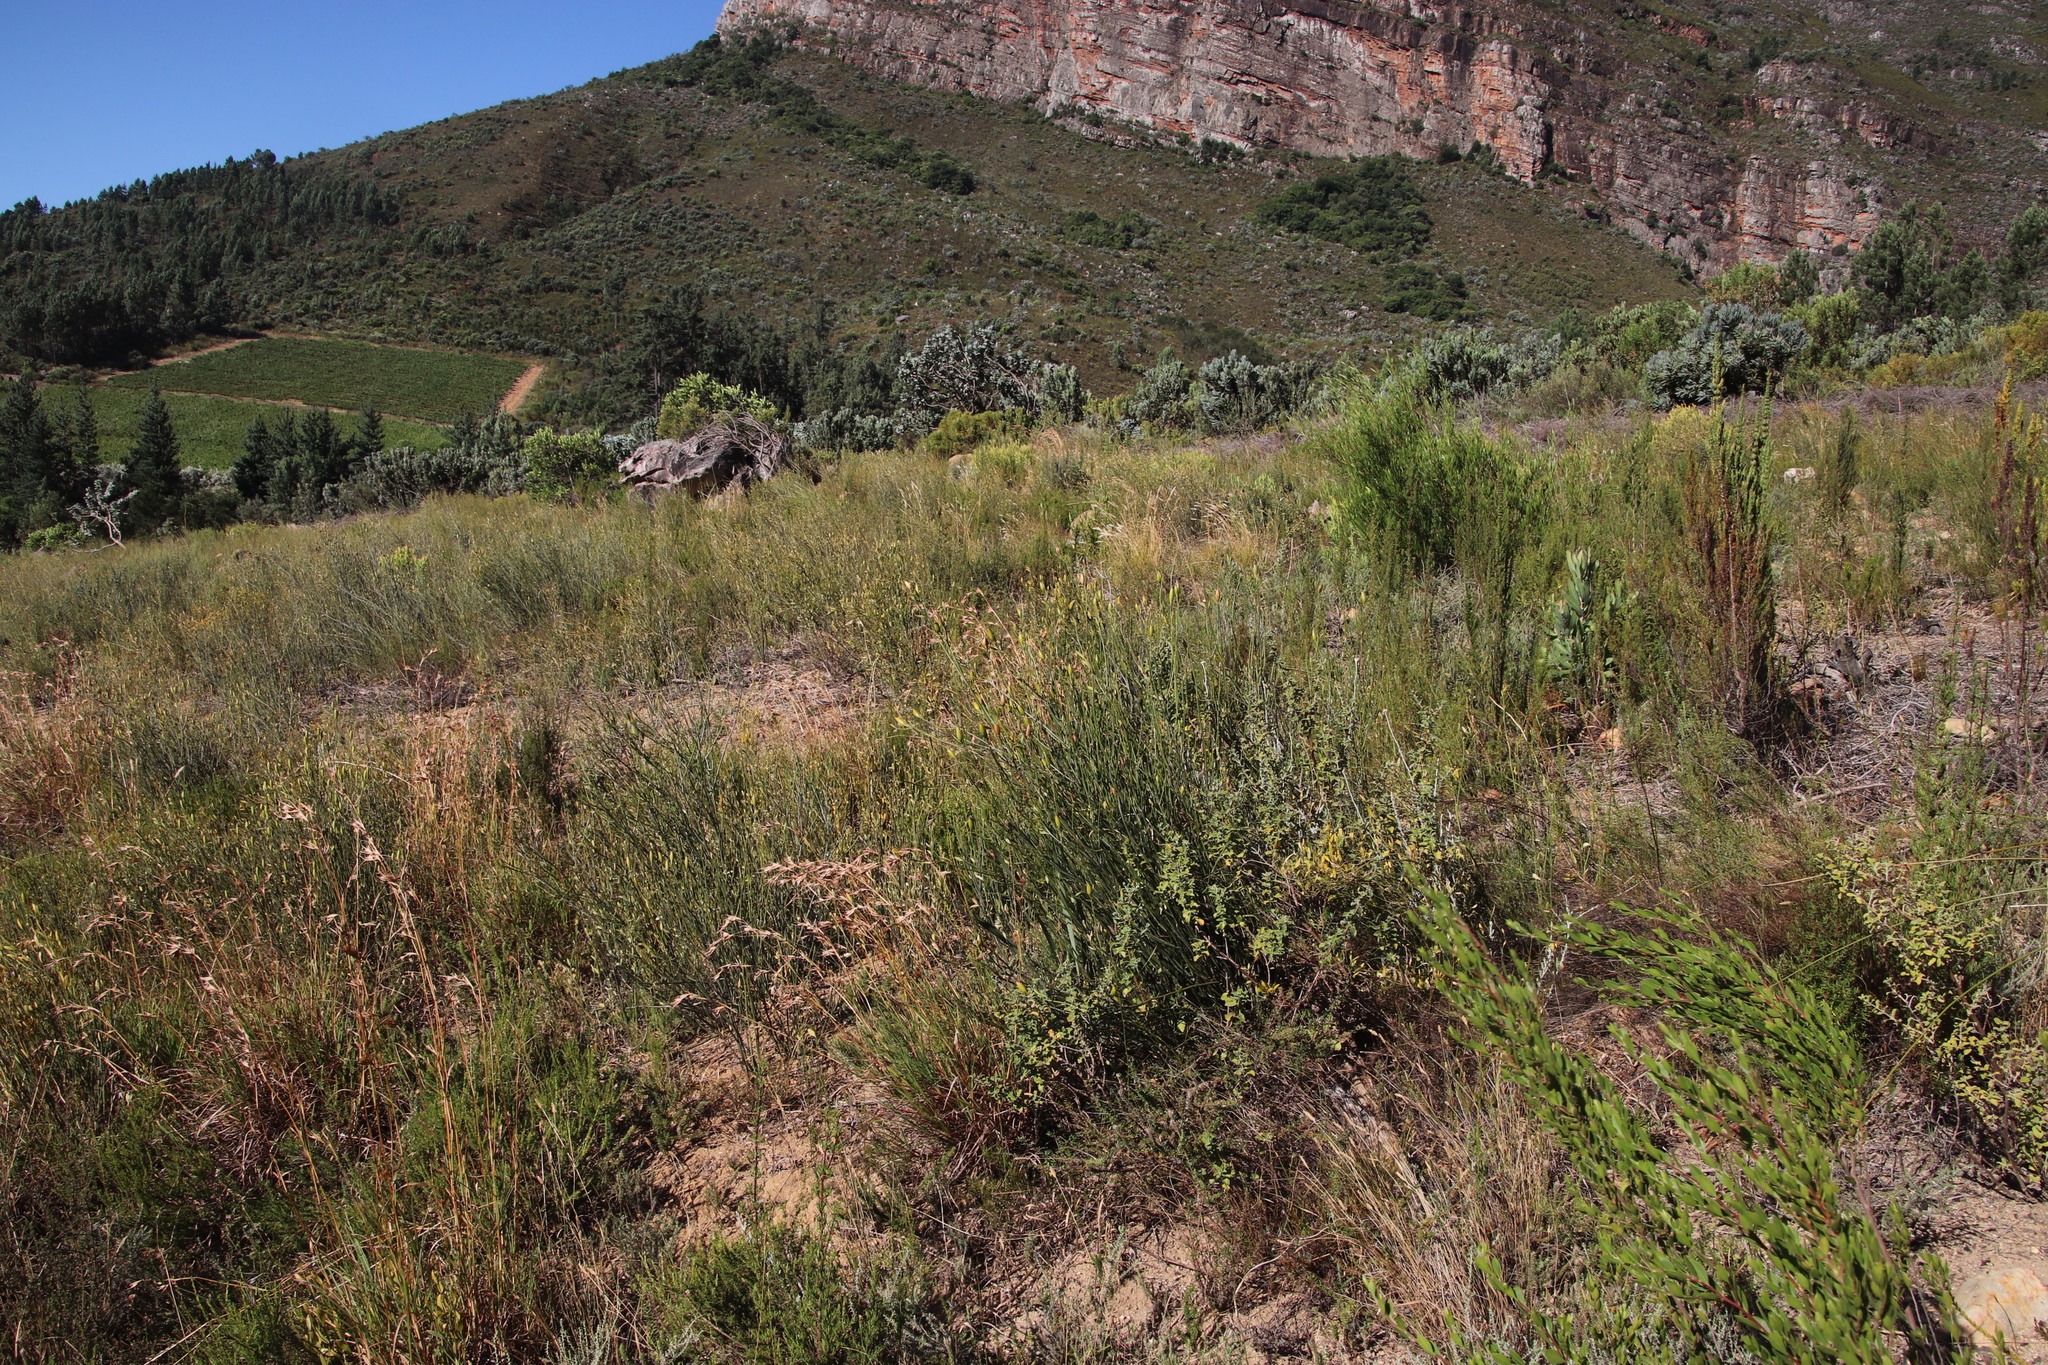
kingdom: Plantae
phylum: Tracheophyta
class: Magnoliopsida
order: Solanales
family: Montiniaceae
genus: Montinia
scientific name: Montinia caryophyllacea
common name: Wild clove-bush
